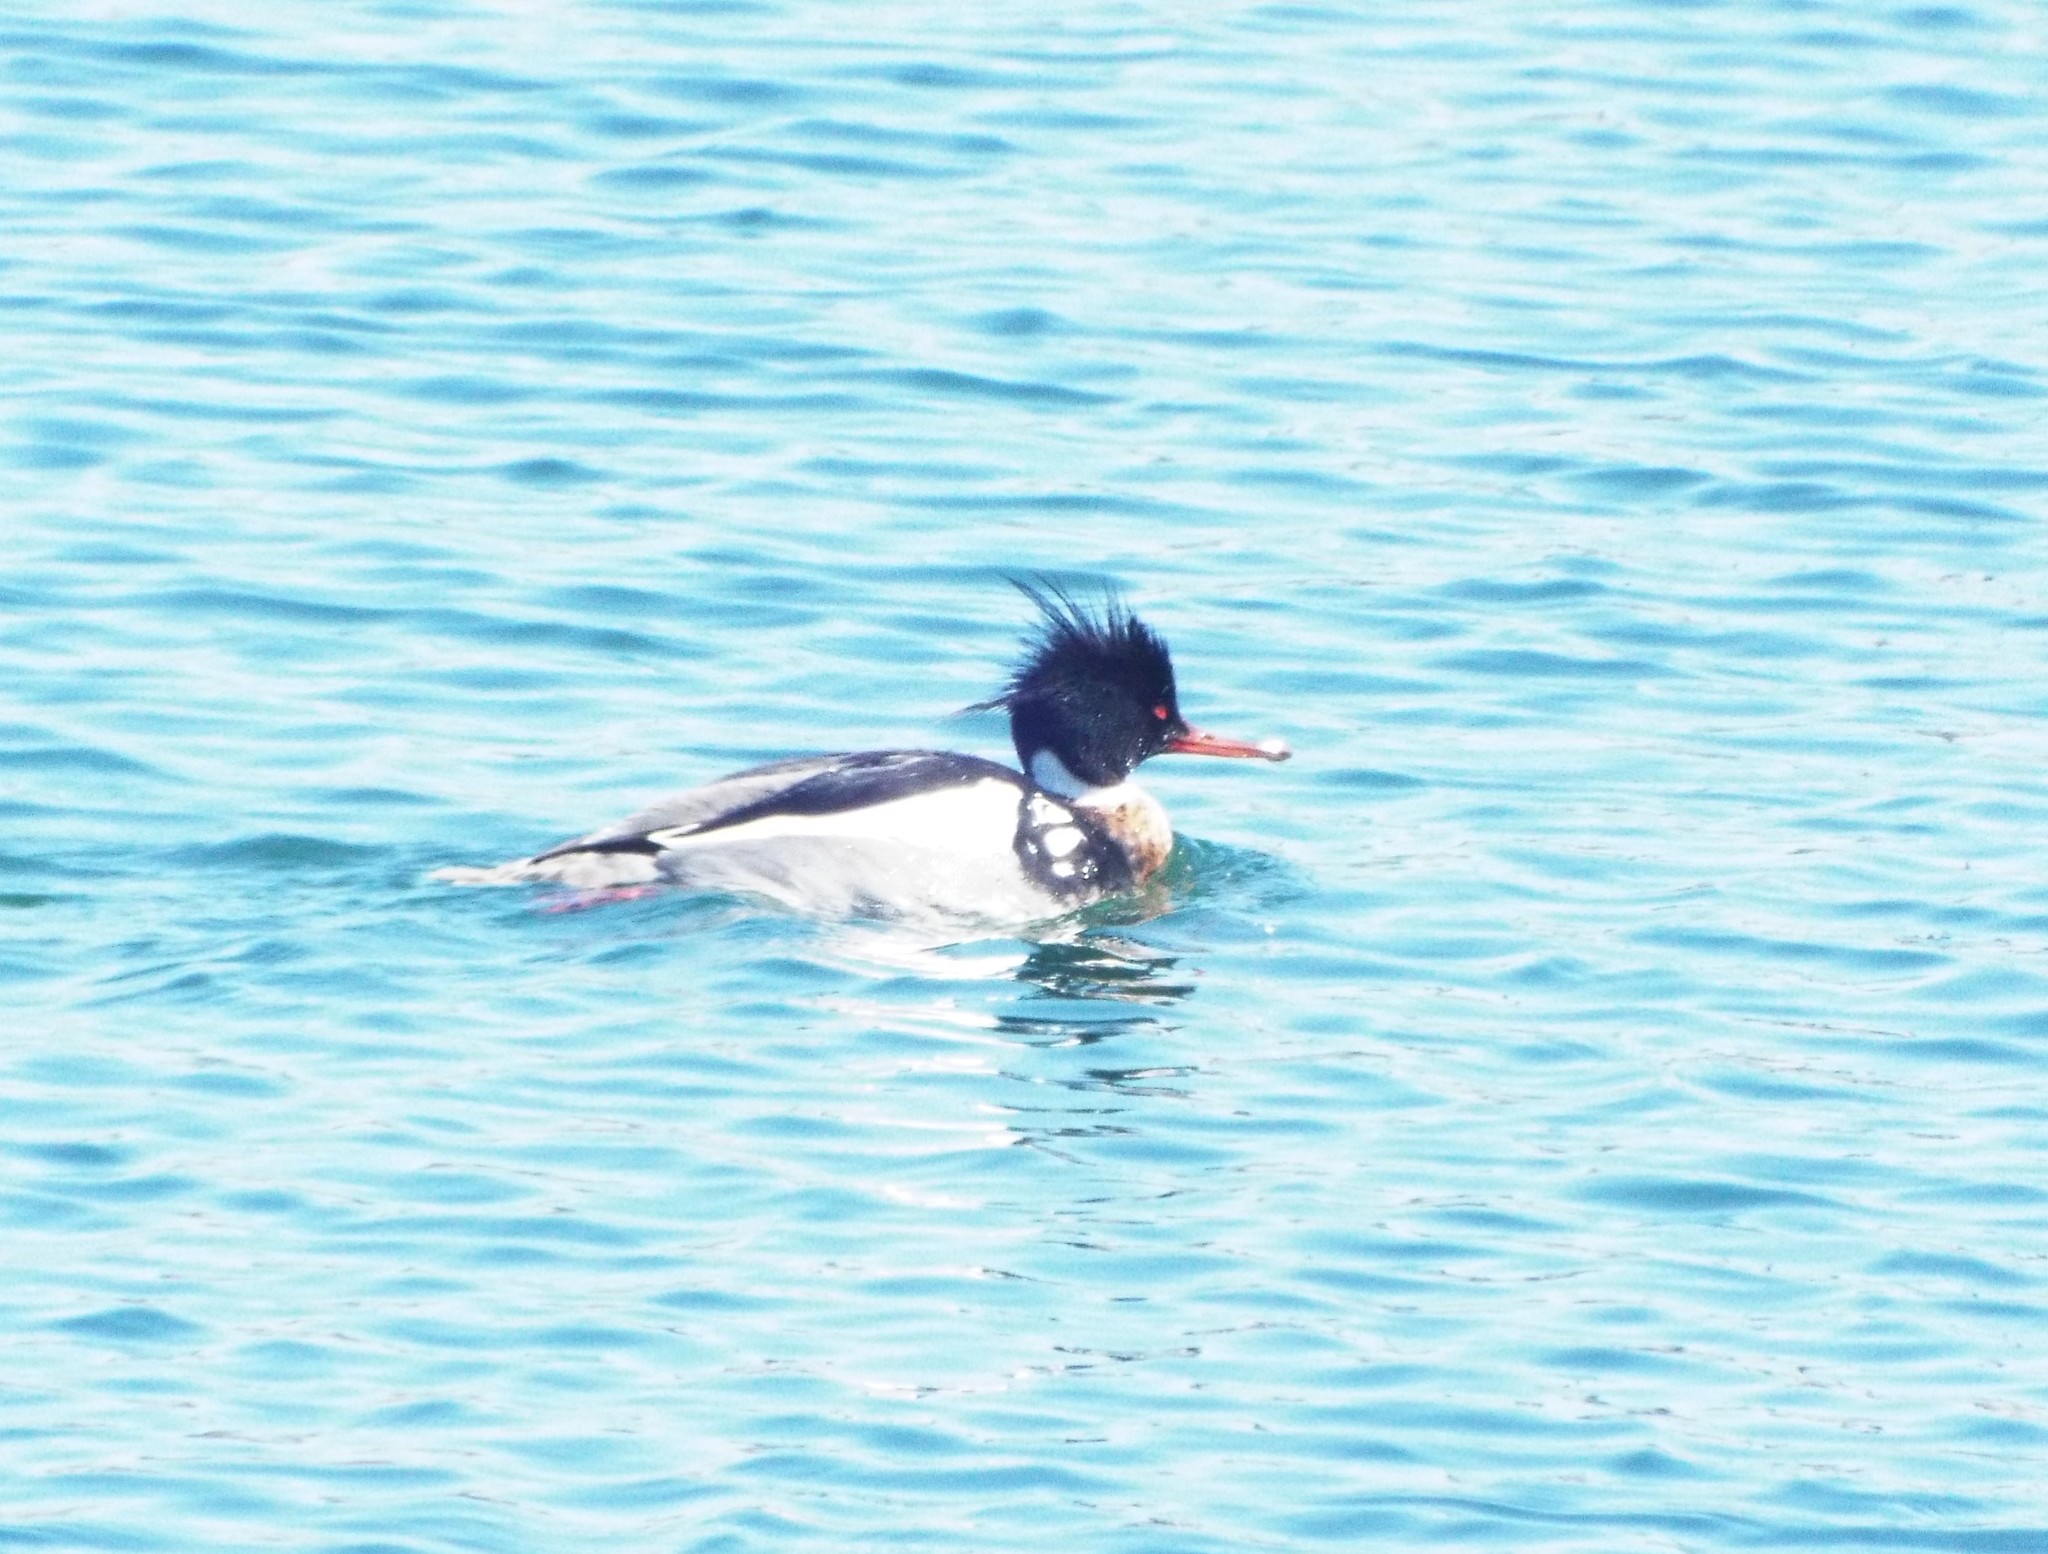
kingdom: Animalia
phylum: Chordata
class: Aves
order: Anseriformes
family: Anatidae
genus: Mergus
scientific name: Mergus serrator
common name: Red-breasted merganser
